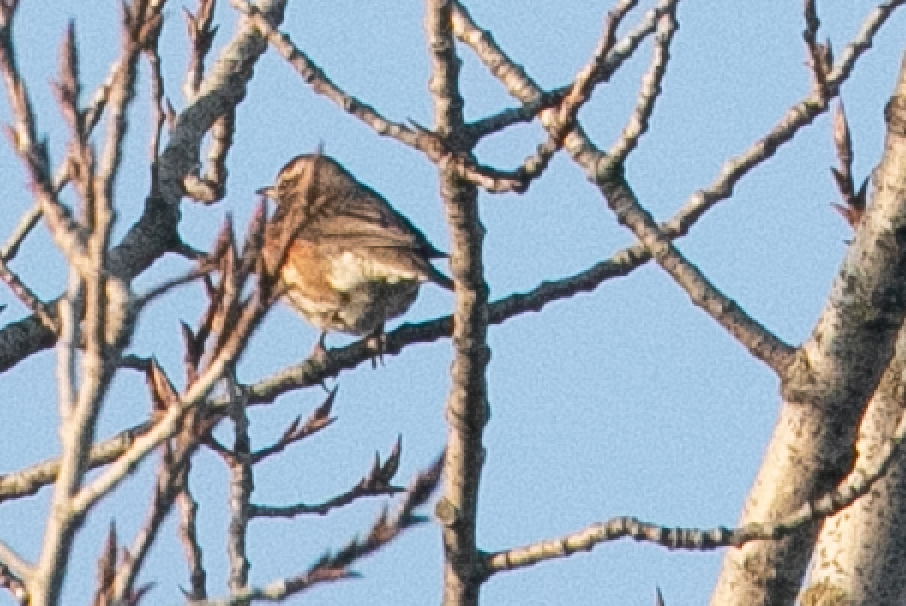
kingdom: Animalia
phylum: Chordata
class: Aves
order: Passeriformes
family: Turdidae
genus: Turdus
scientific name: Turdus iliacus
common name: Redwing
